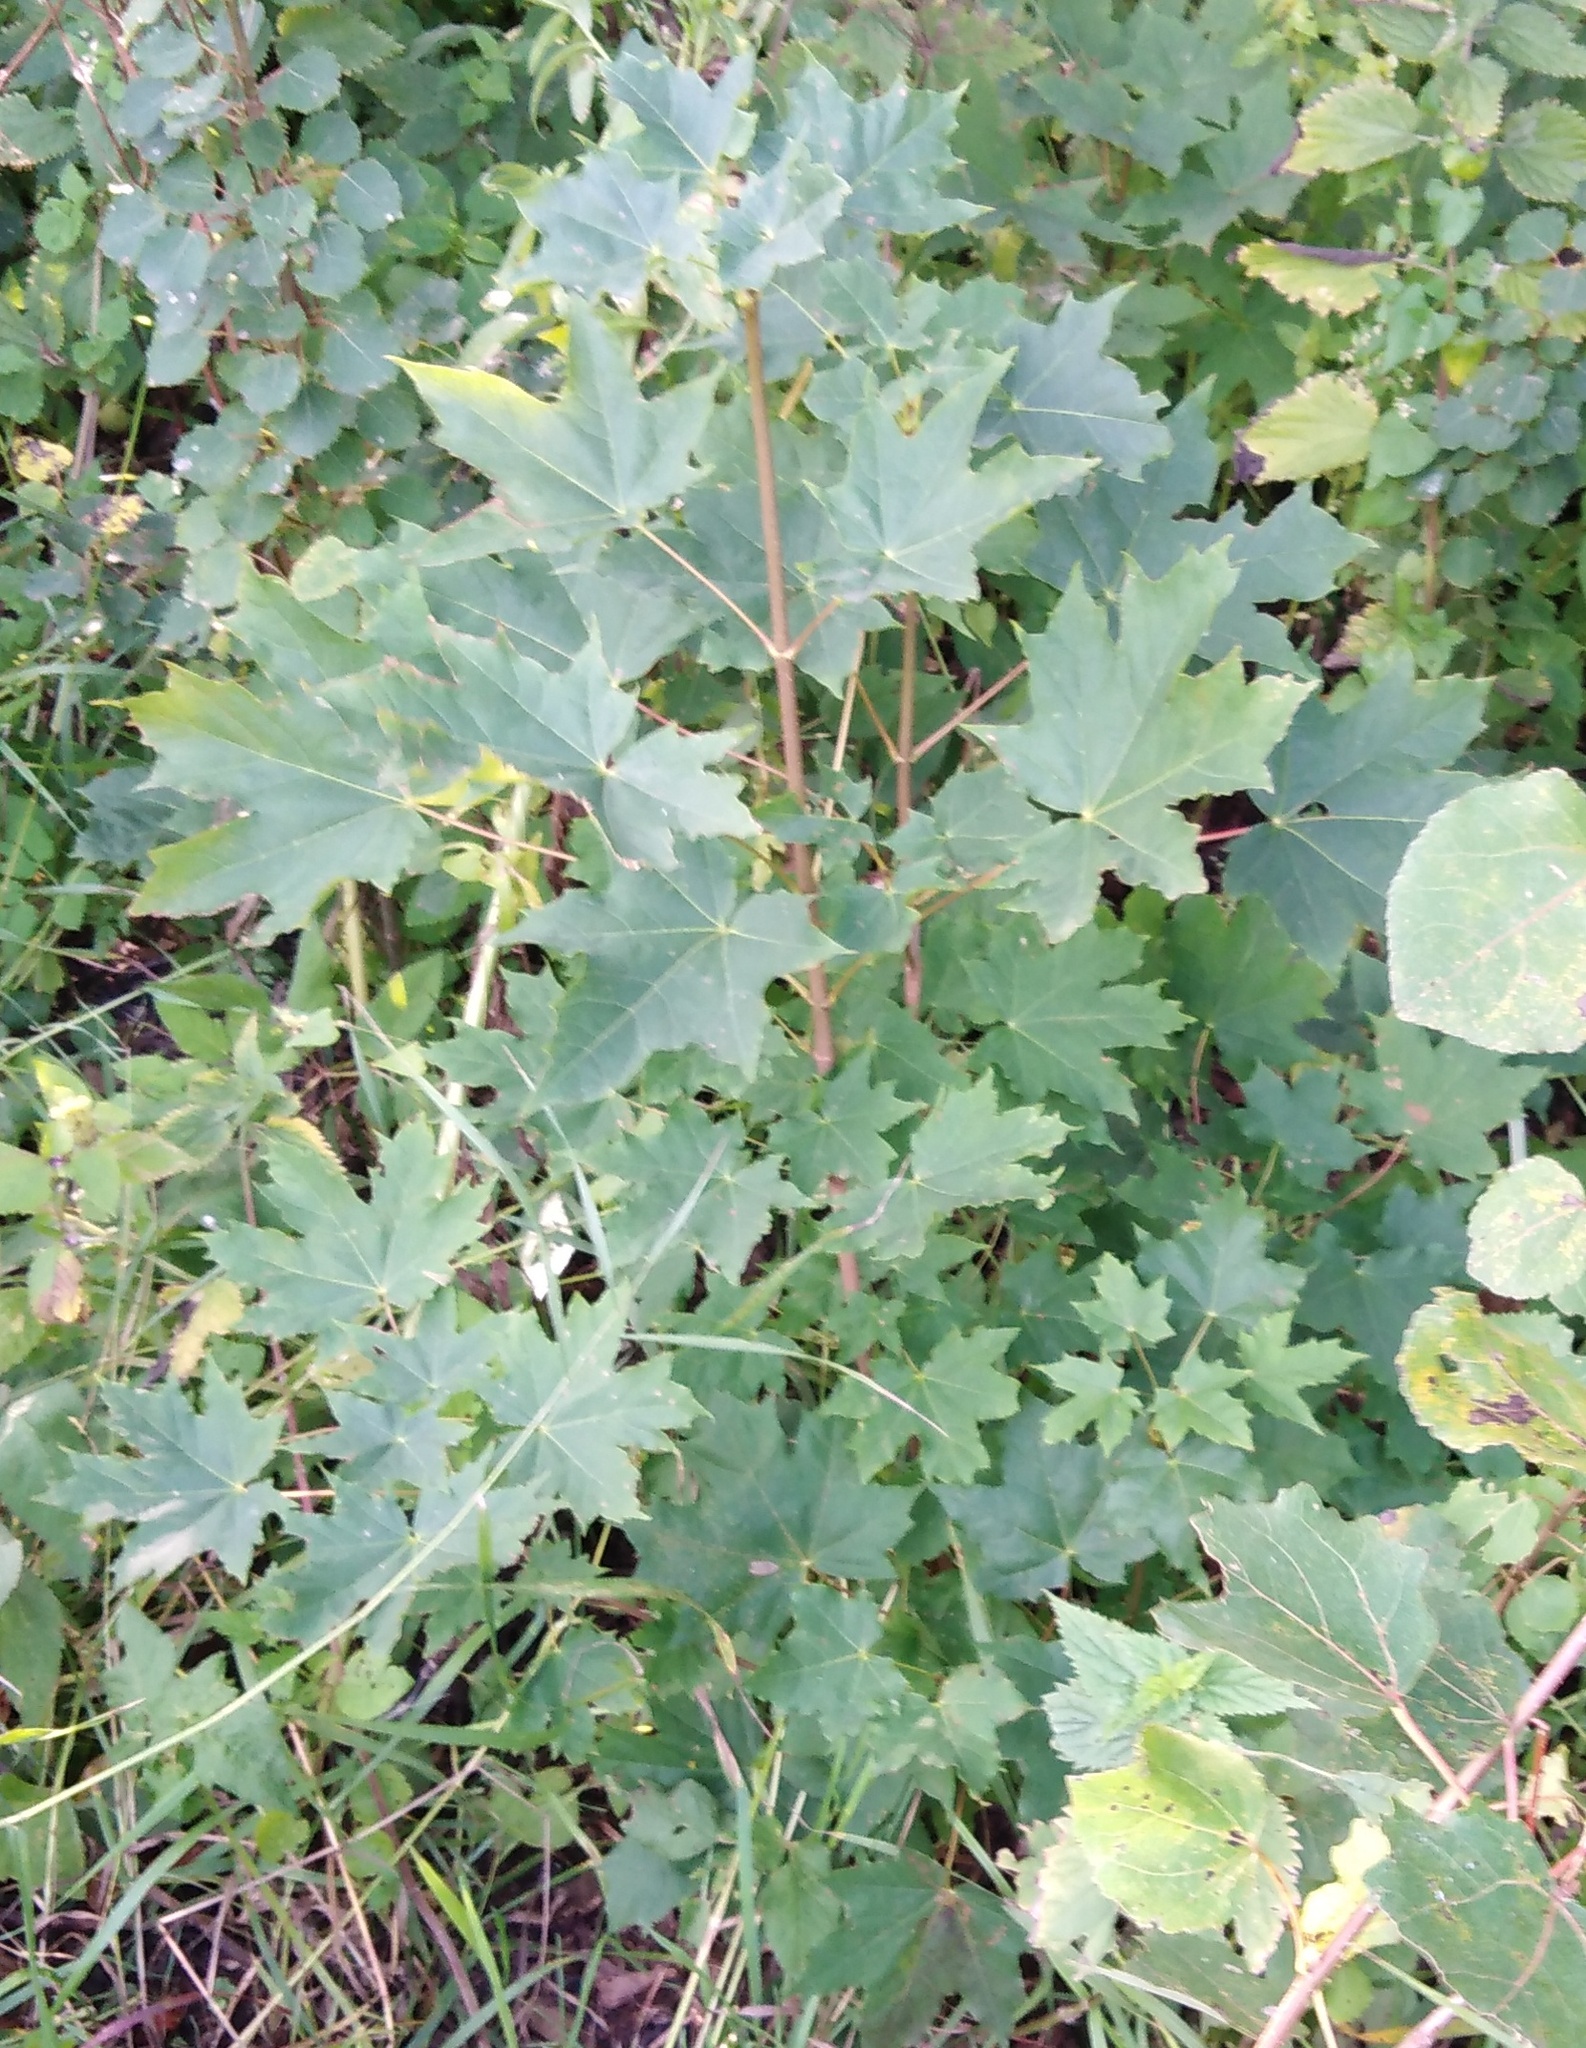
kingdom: Plantae
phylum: Tracheophyta
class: Magnoliopsida
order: Sapindales
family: Sapindaceae
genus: Acer
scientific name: Acer platanoides
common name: Norway maple
